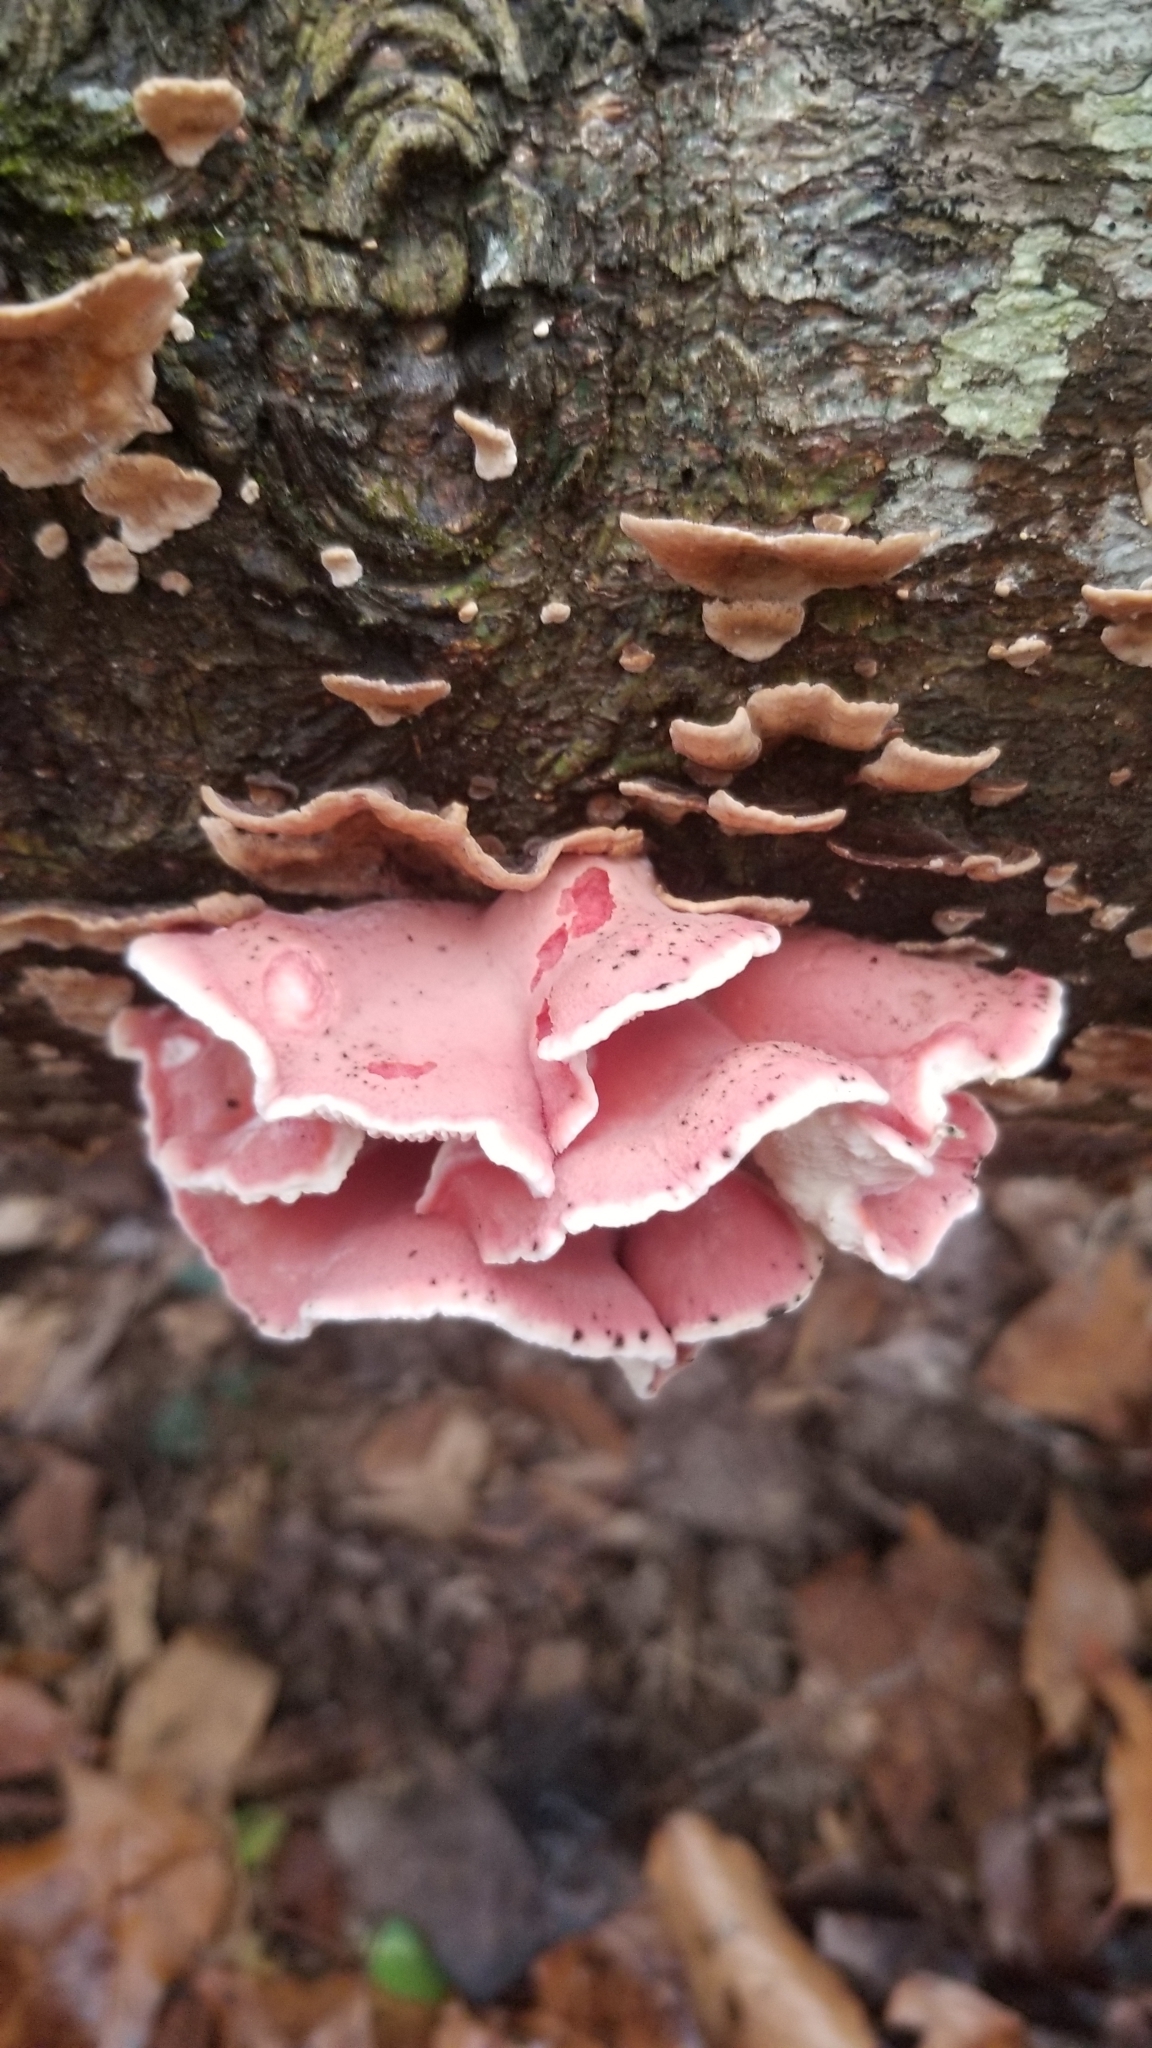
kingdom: Fungi
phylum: Basidiomycota
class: Agaricomycetes
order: Polyporales
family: Irpicaceae
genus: Byssomerulius
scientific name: Byssomerulius incarnatus
